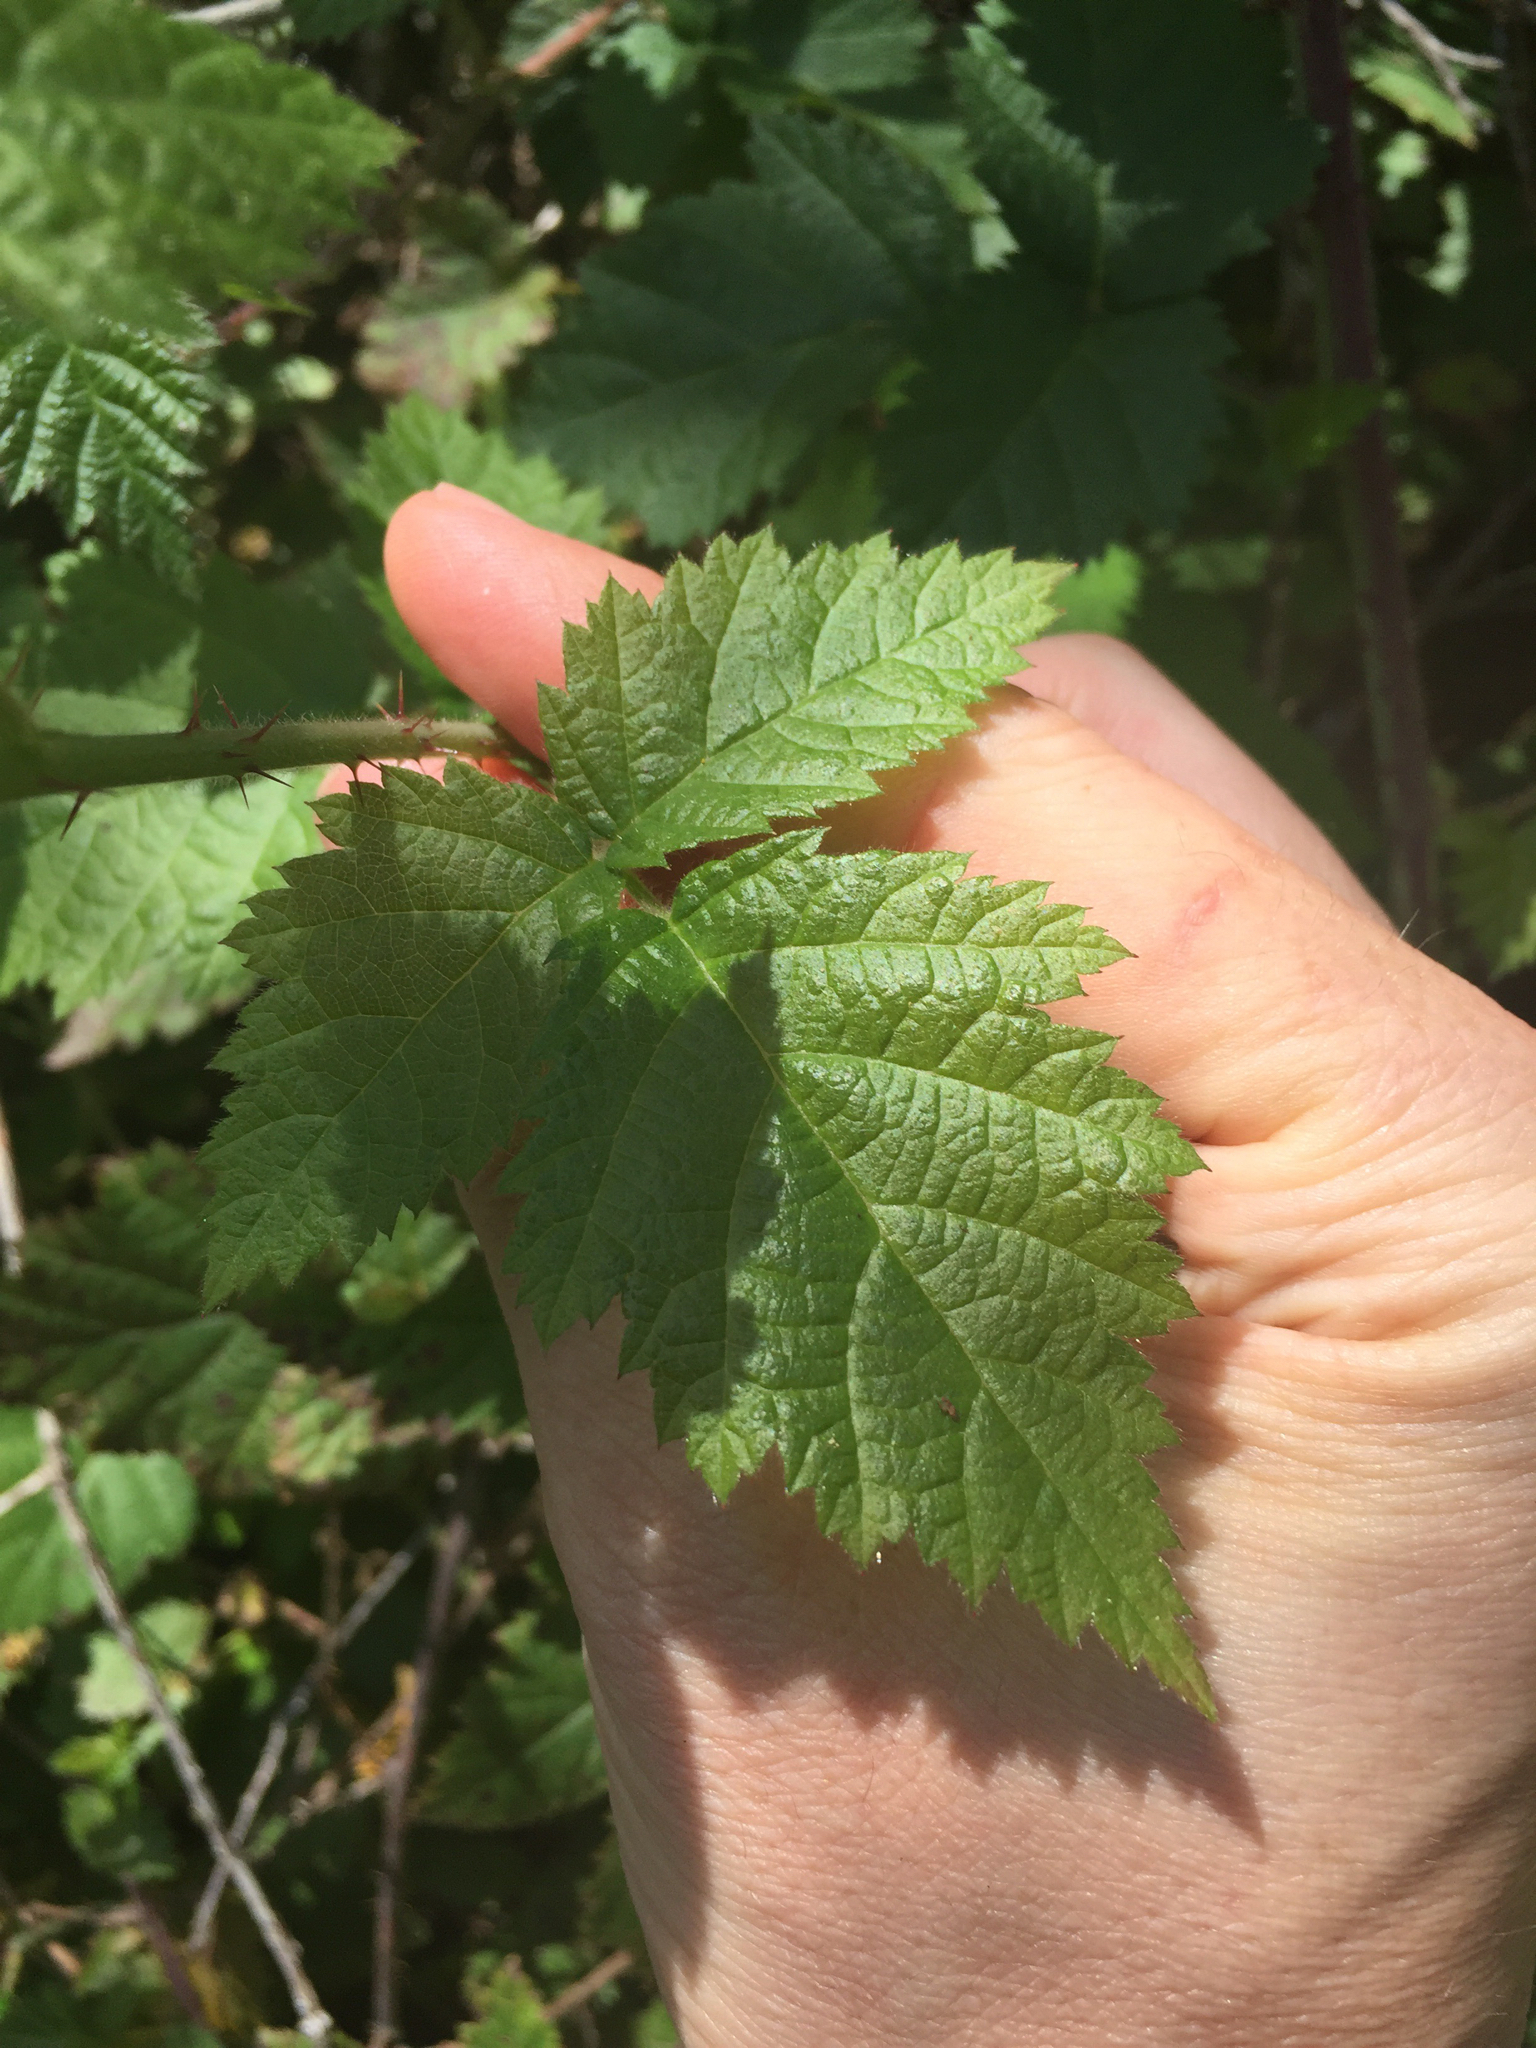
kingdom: Plantae
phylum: Tracheophyta
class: Magnoliopsida
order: Rosales
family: Rosaceae
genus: Rubus
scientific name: Rubus ursinus
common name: Pacific blackberry
